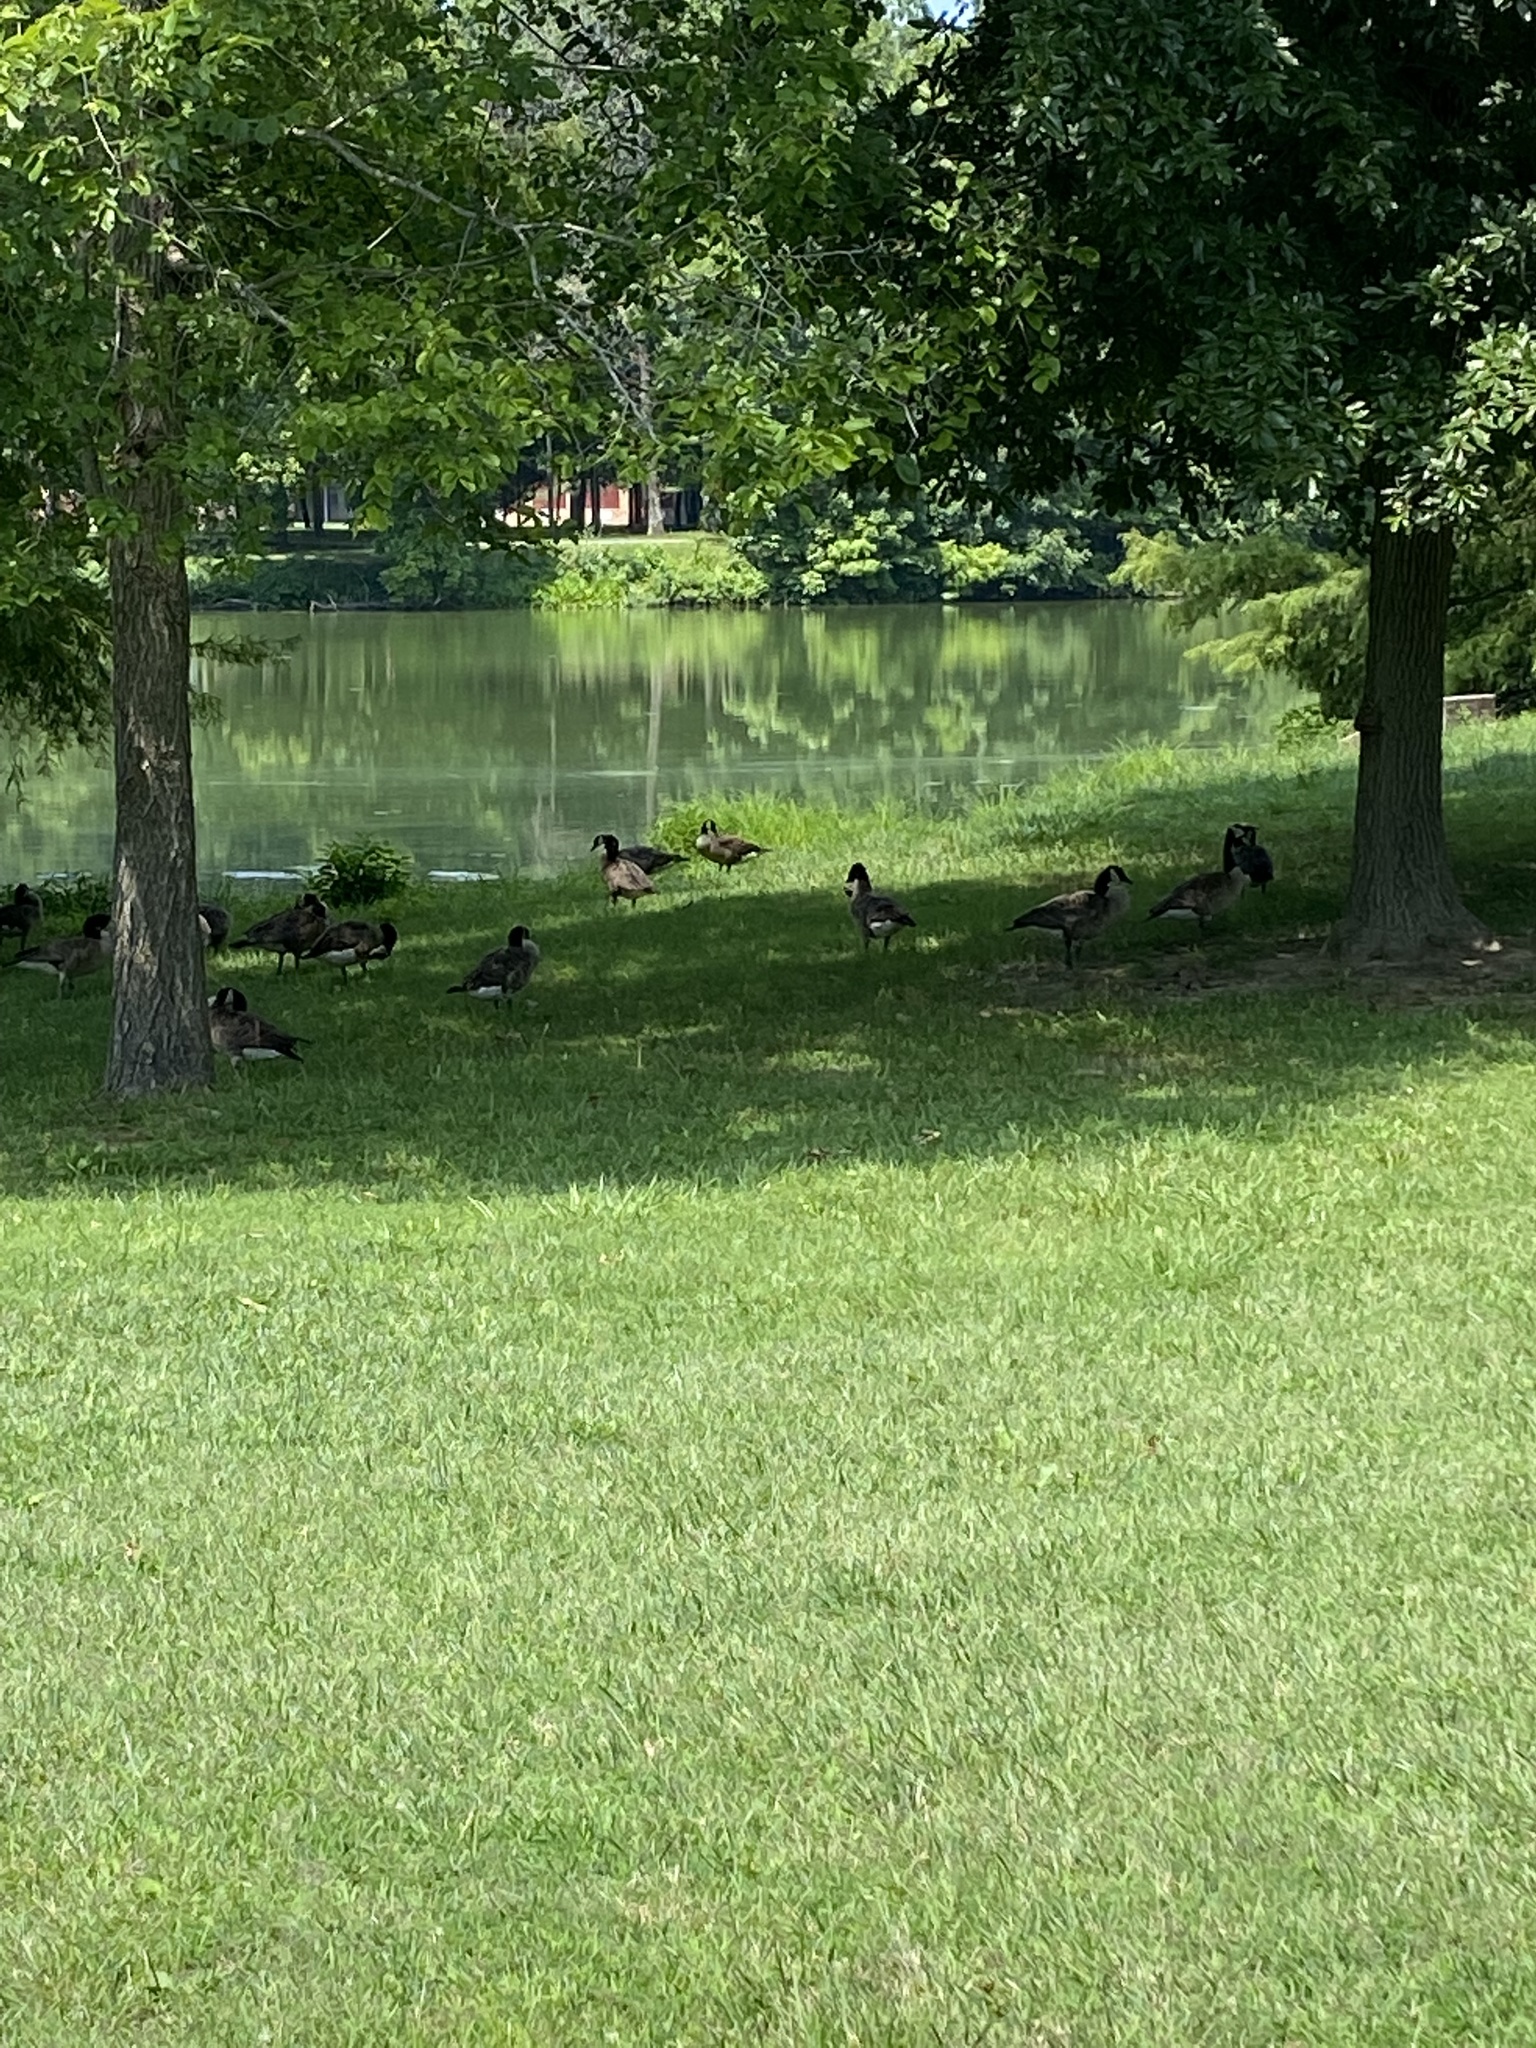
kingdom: Animalia
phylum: Chordata
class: Aves
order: Anseriformes
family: Anatidae
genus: Branta
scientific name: Branta canadensis
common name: Canada goose
